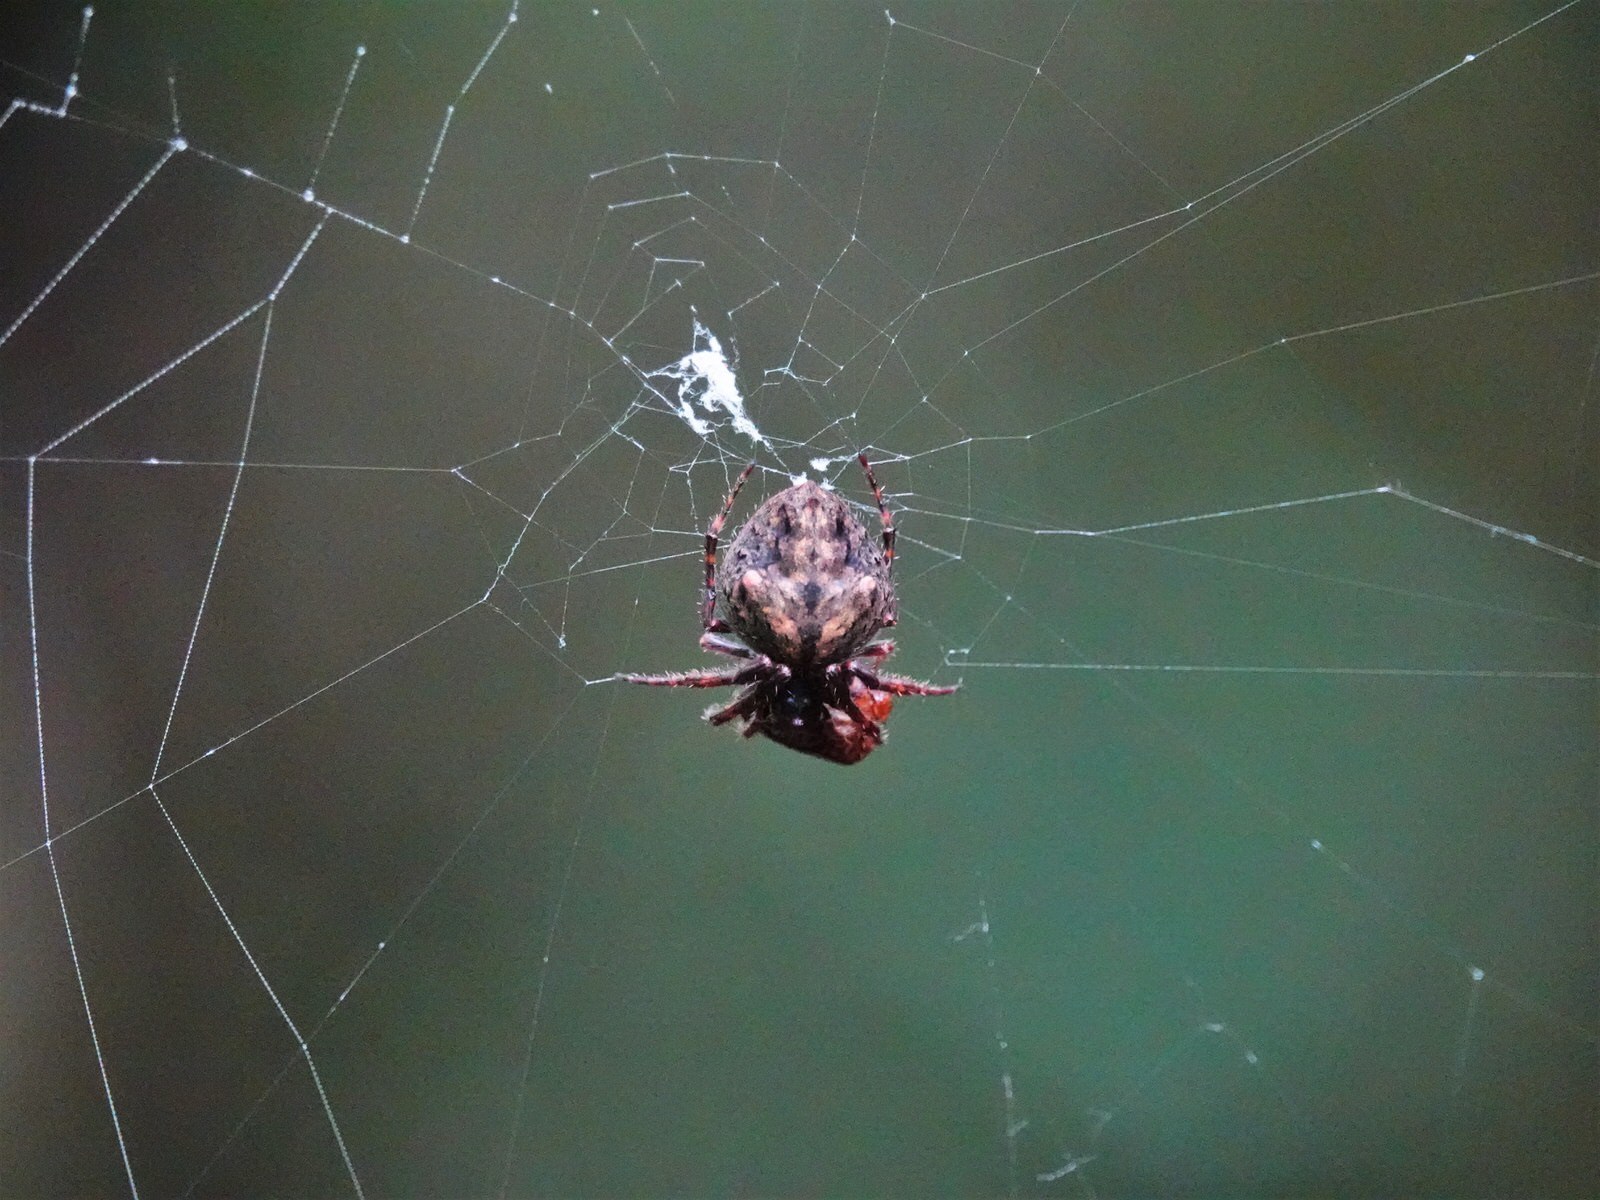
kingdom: Animalia
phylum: Arthropoda
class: Arachnida
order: Araneae
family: Araneidae
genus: Eriophora
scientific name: Eriophora pustulosa
